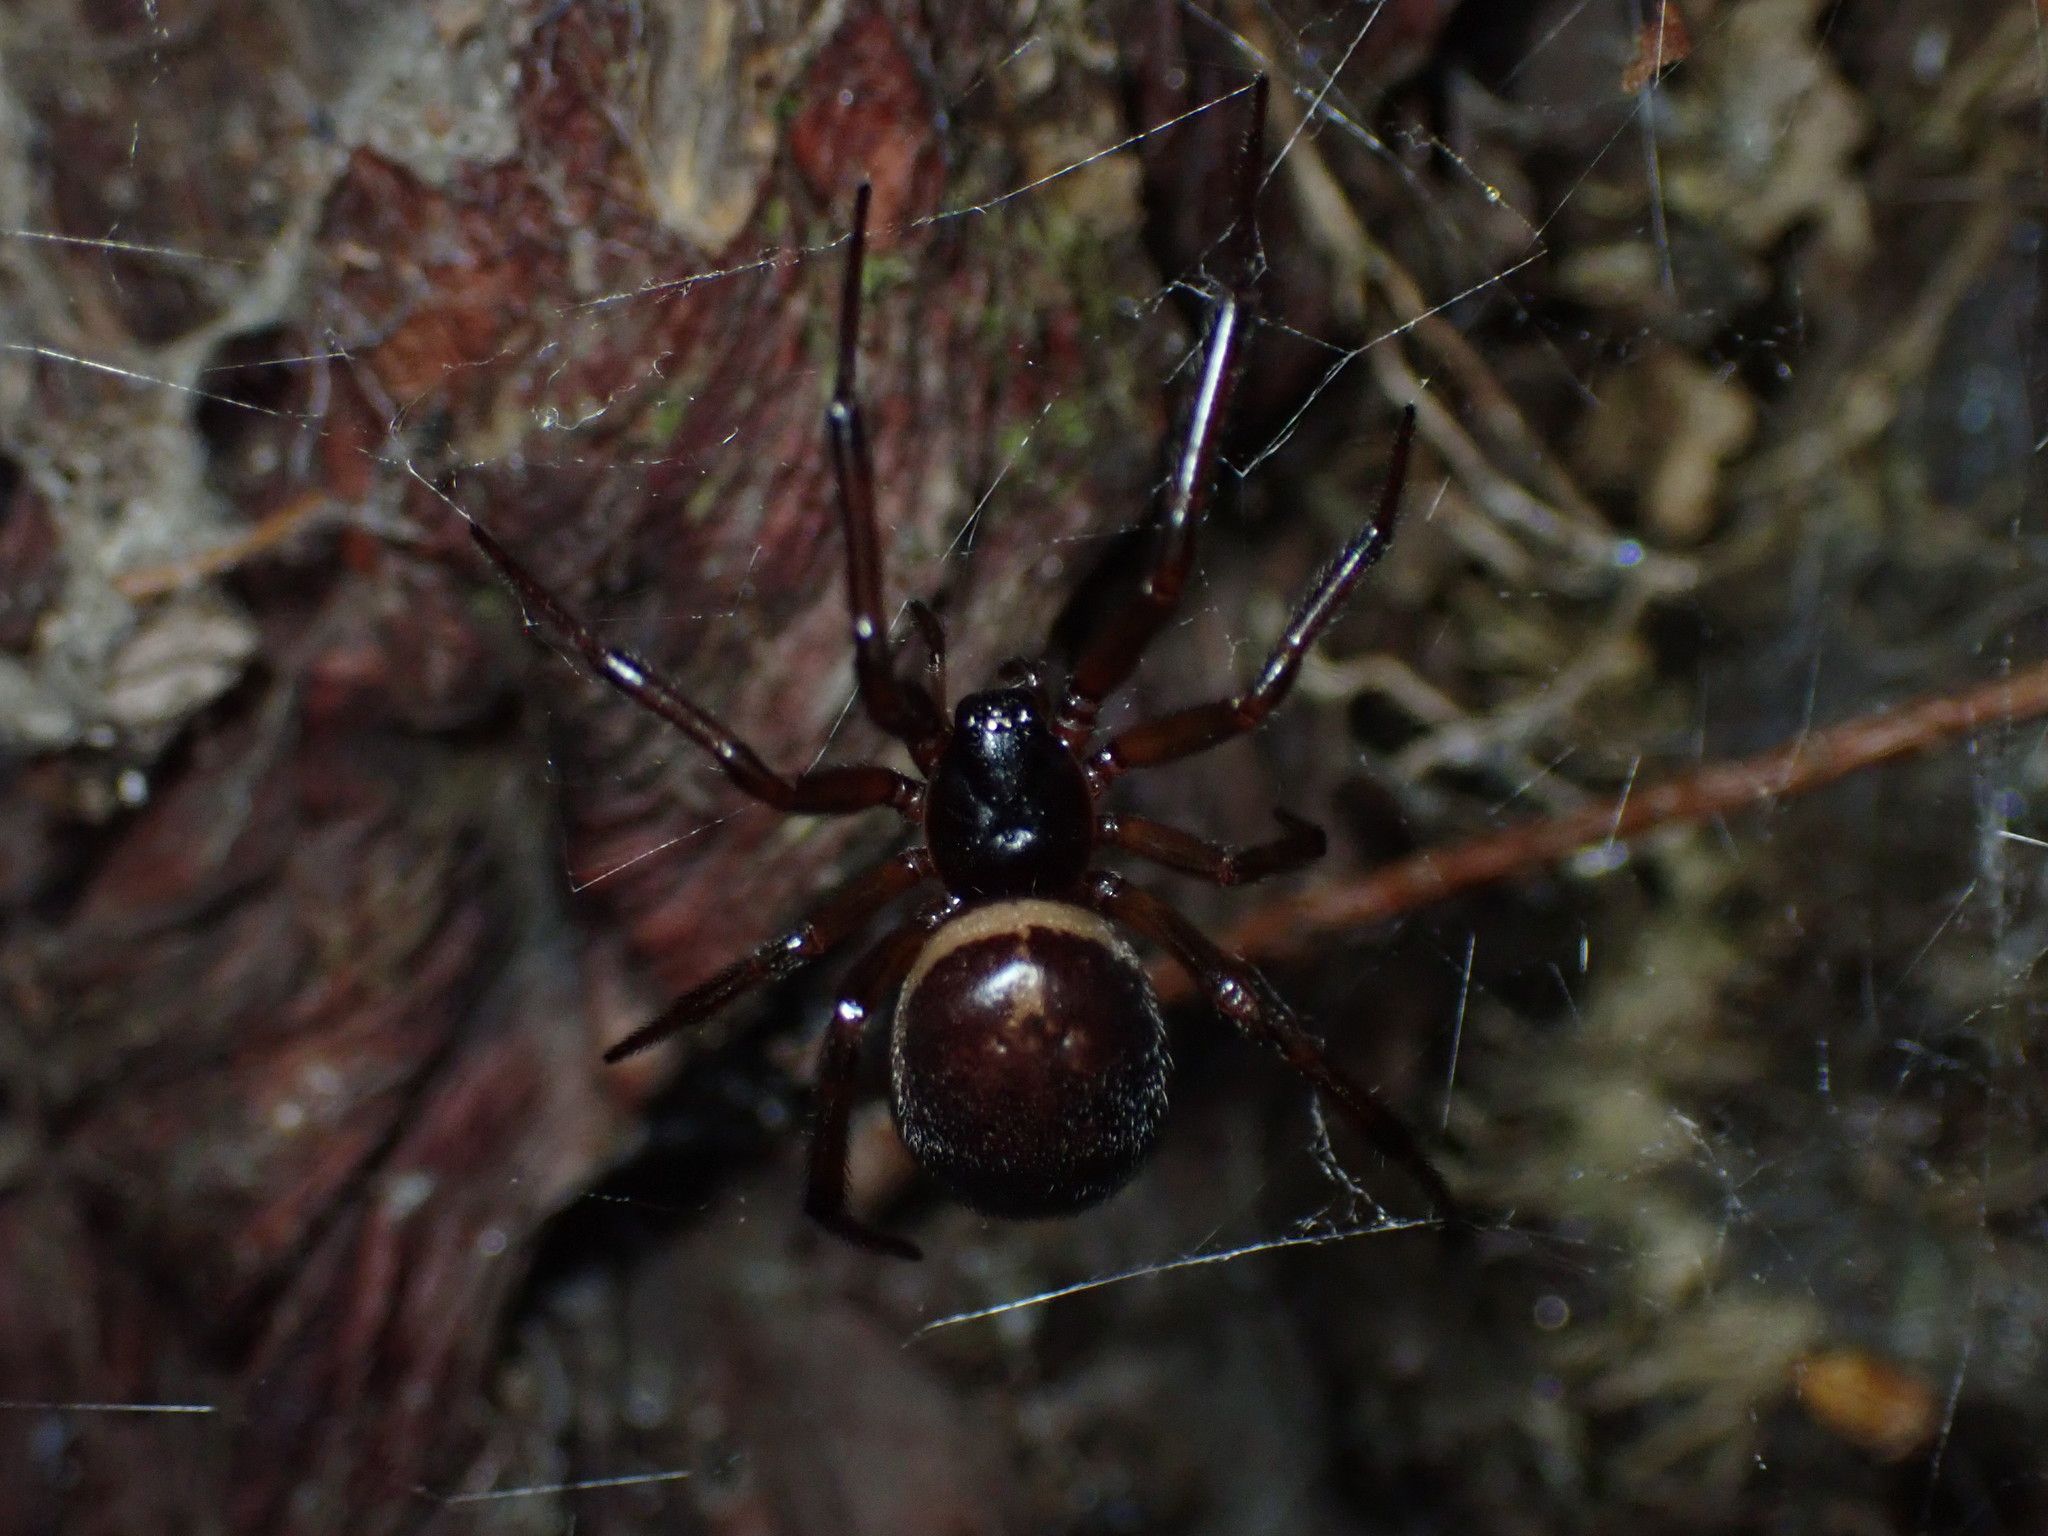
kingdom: Animalia
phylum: Arthropoda
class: Arachnida
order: Araneae
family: Theridiidae
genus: Steatoda
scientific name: Steatoda nobilis
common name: Cobweb weaver
